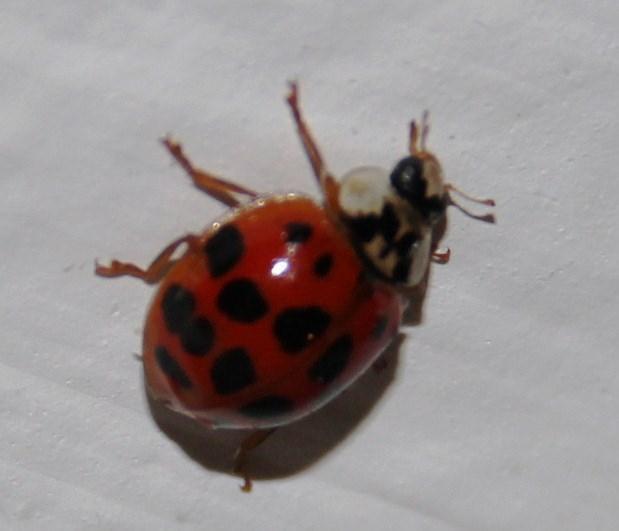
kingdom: Animalia
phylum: Arthropoda
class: Insecta
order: Coleoptera
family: Coccinellidae
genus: Harmonia
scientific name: Harmonia axyridis
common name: Harlequin ladybird
